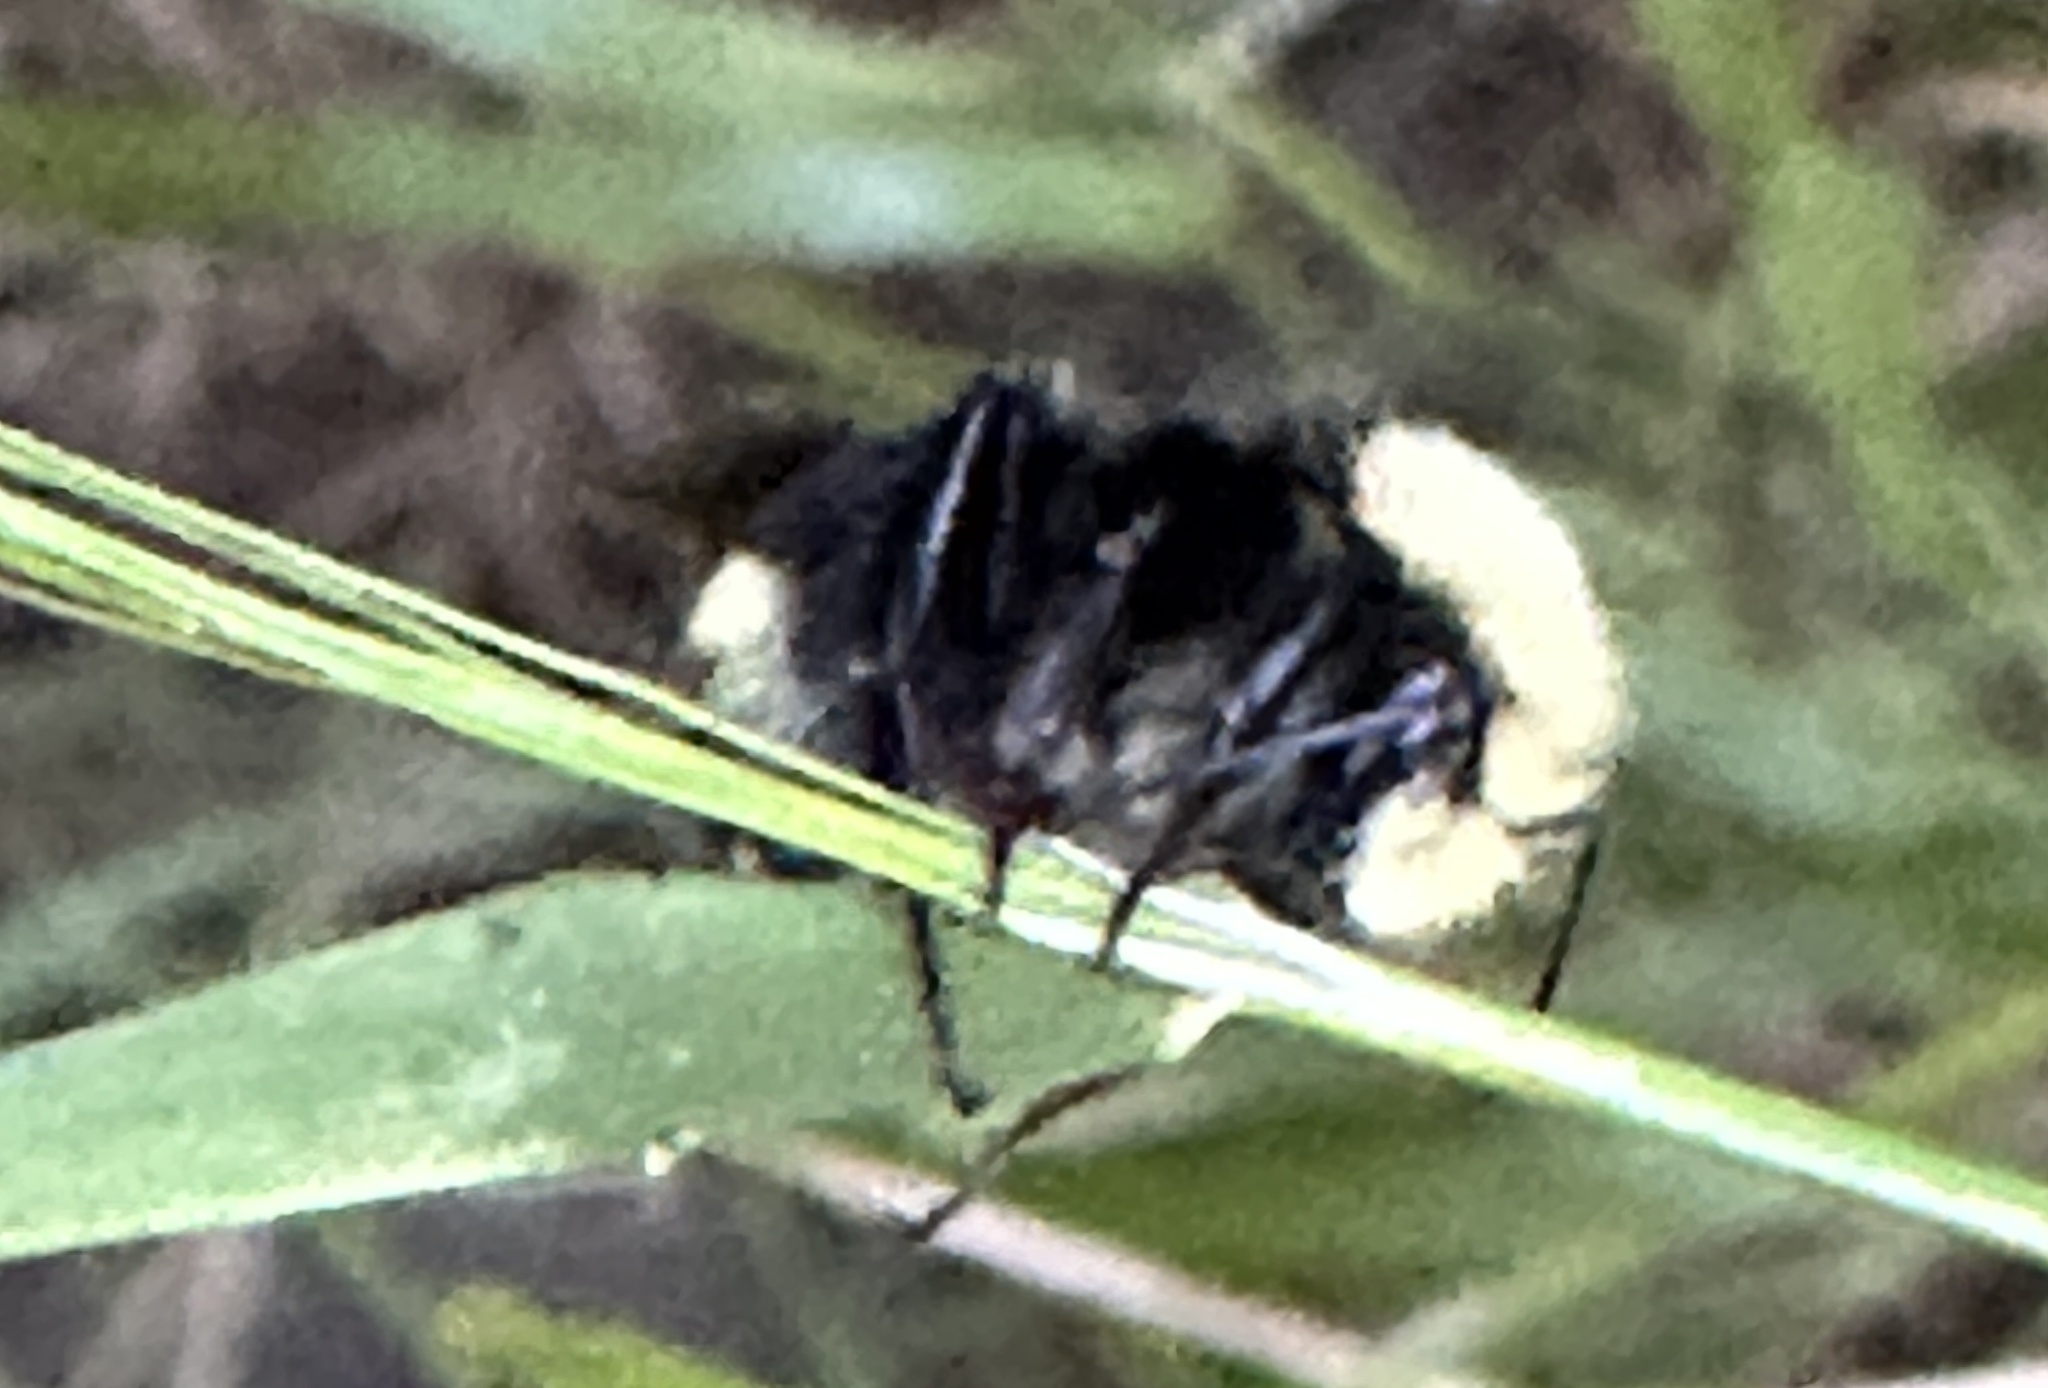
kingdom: Animalia
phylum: Arthropoda
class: Insecta
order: Hymenoptera
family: Apidae
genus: Bombus
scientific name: Bombus vosnesenskii
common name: Vosnesensky bumble bee
